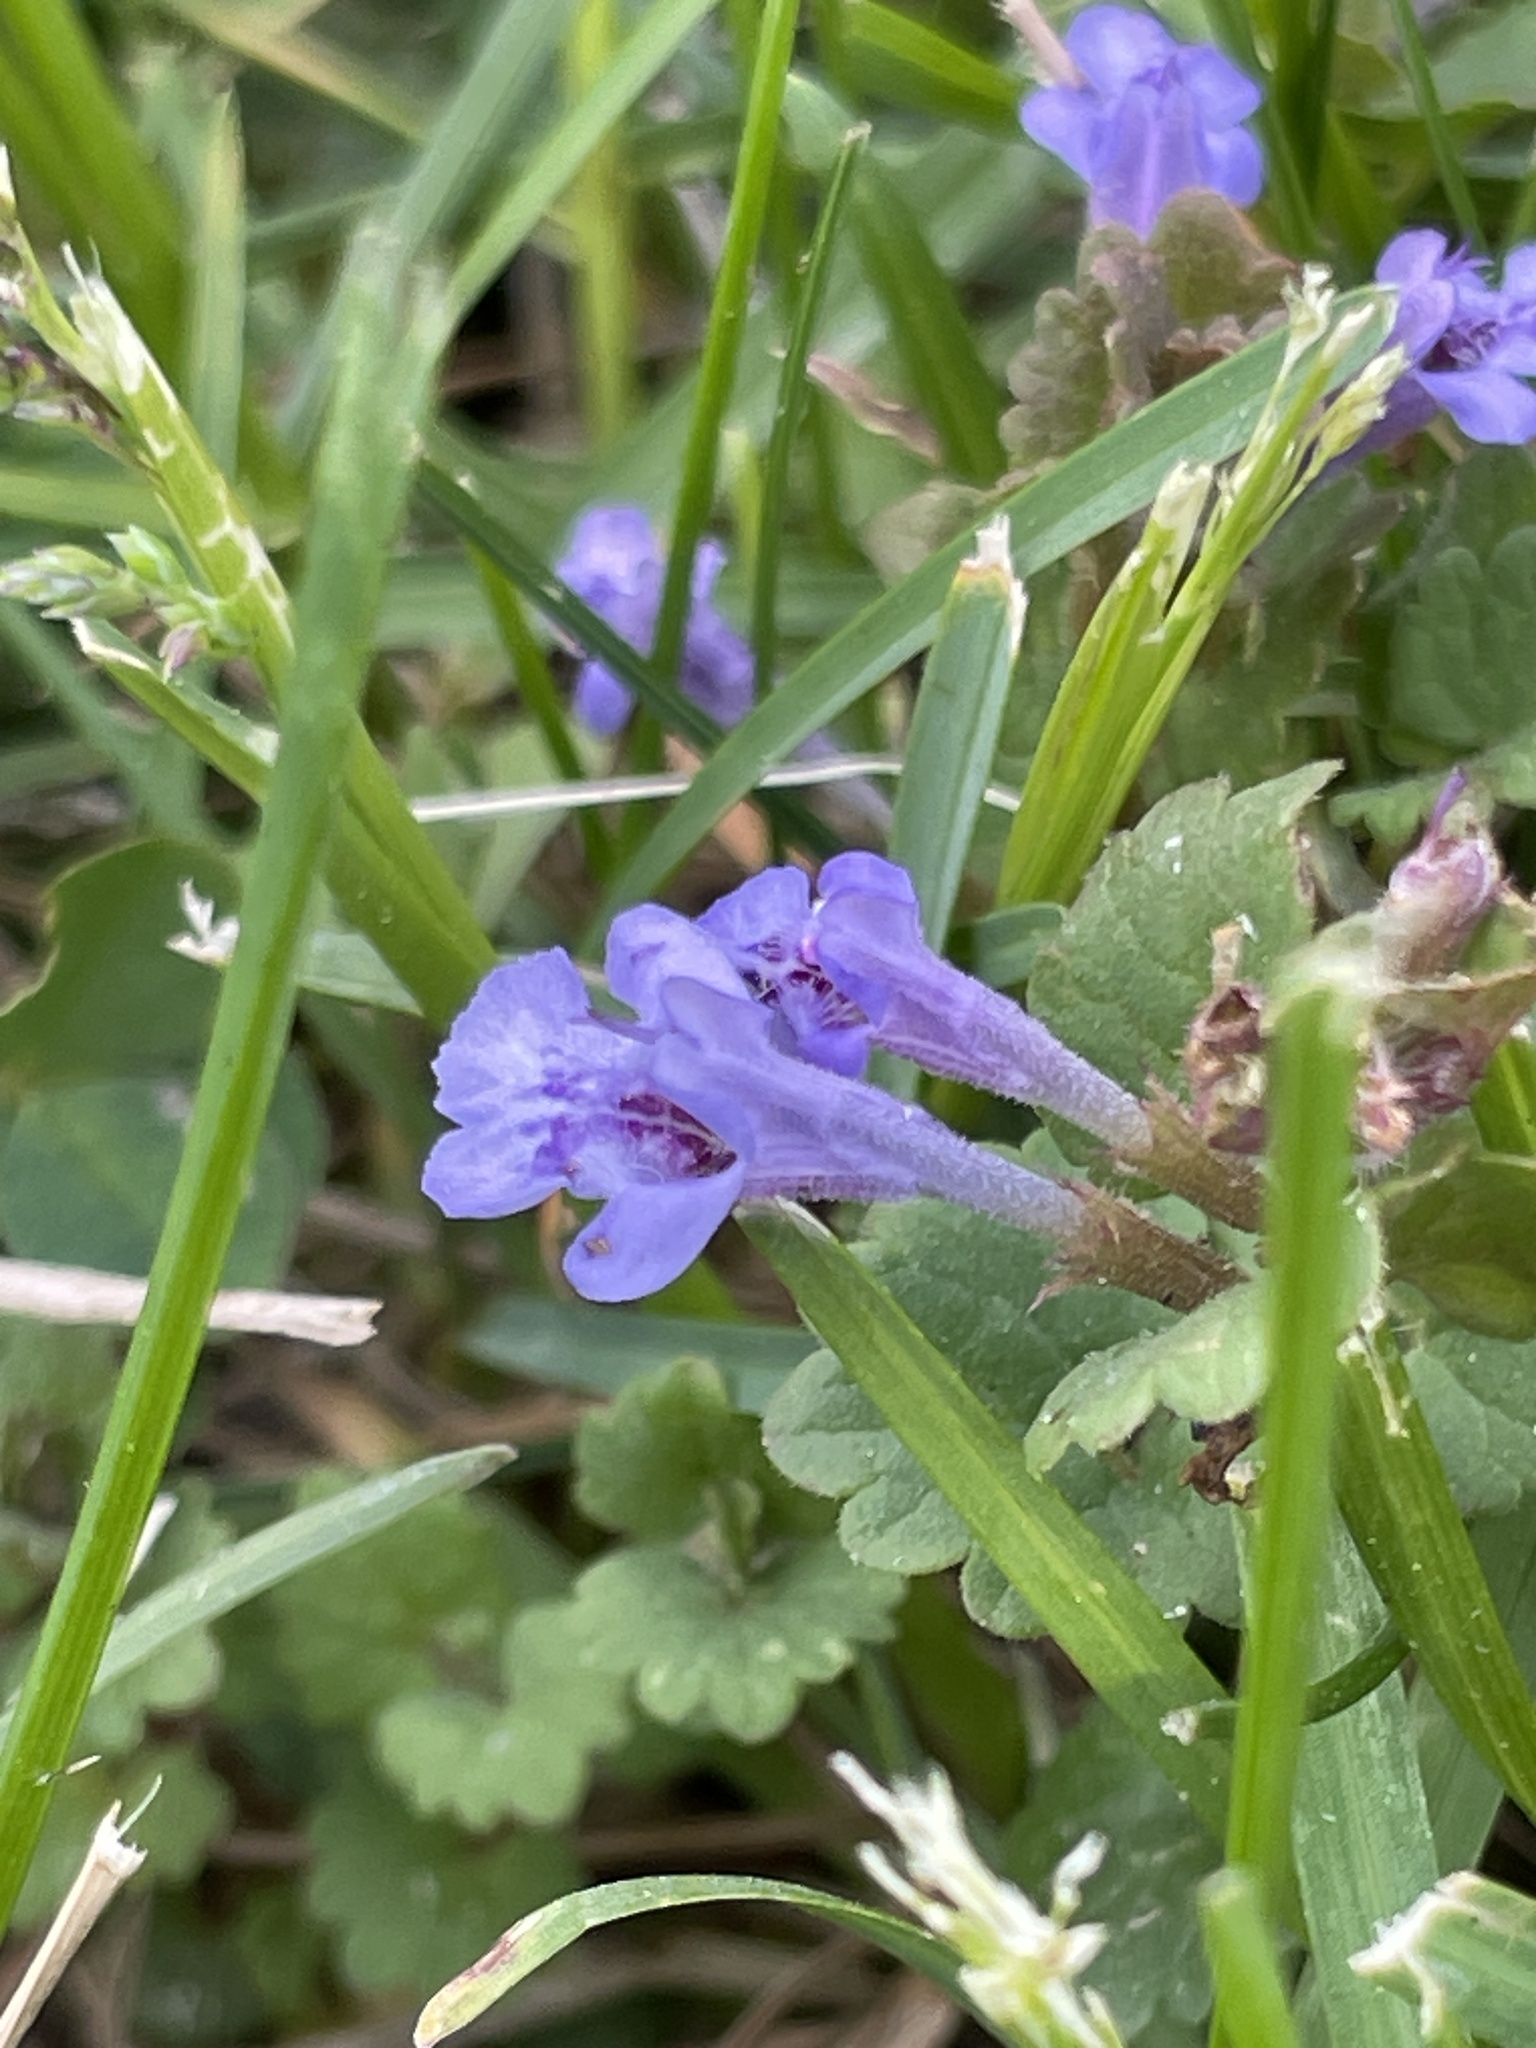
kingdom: Plantae
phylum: Tracheophyta
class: Magnoliopsida
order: Lamiales
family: Lamiaceae
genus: Glechoma
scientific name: Glechoma hederacea
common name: Ground ivy
